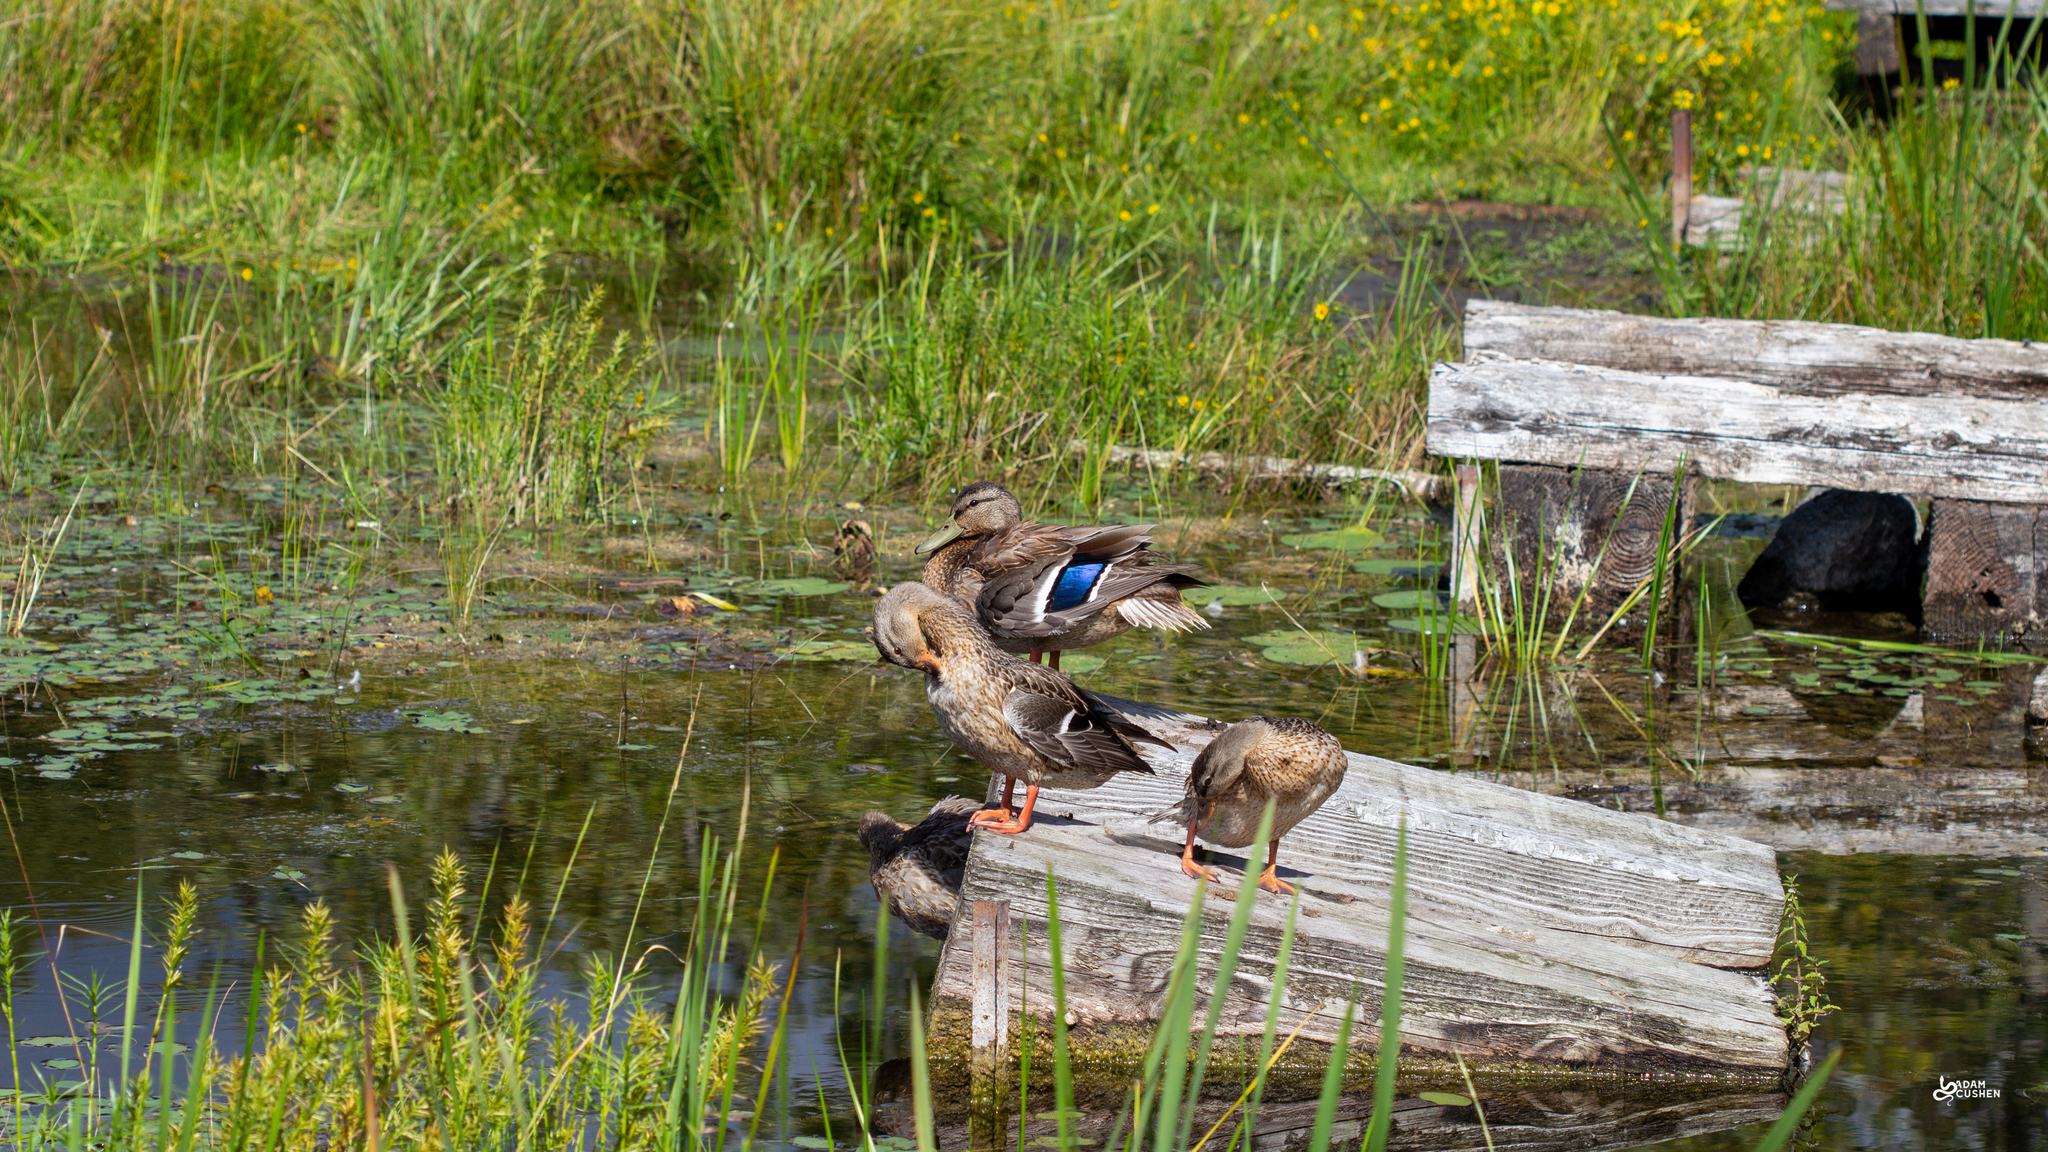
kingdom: Animalia
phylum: Chordata
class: Aves
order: Anseriformes
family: Anatidae
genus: Anas
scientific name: Anas platyrhynchos
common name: Mallard
